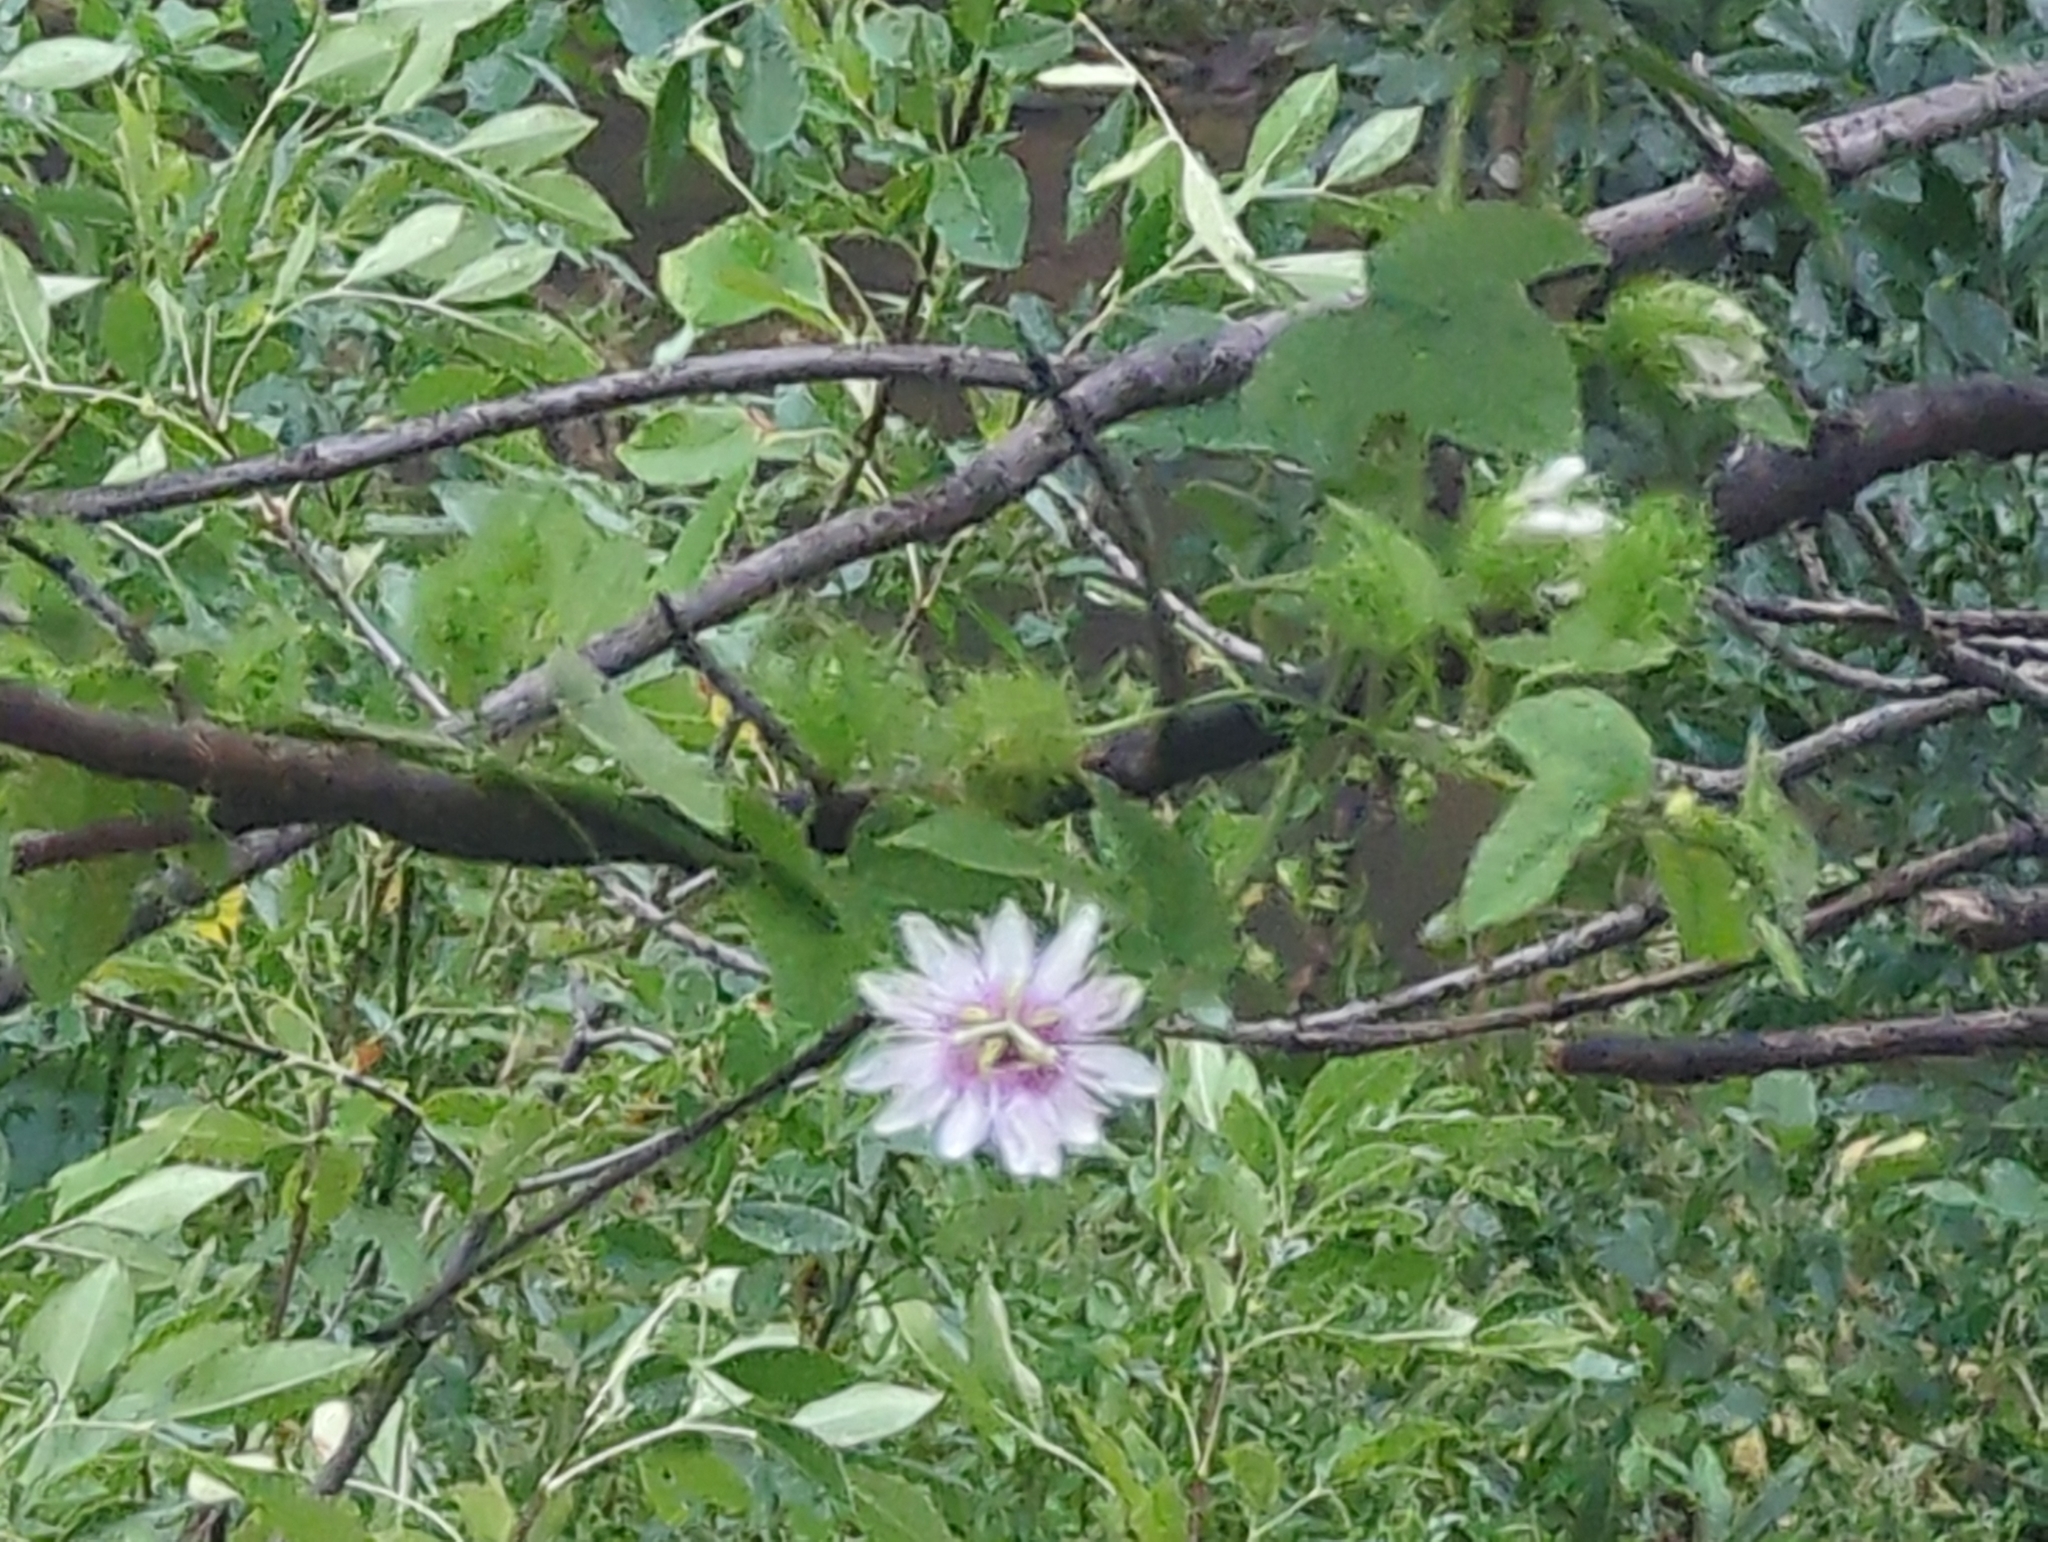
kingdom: Plantae
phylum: Tracheophyta
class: Magnoliopsida
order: Malpighiales
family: Passifloraceae
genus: Passiflora
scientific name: Passiflora
